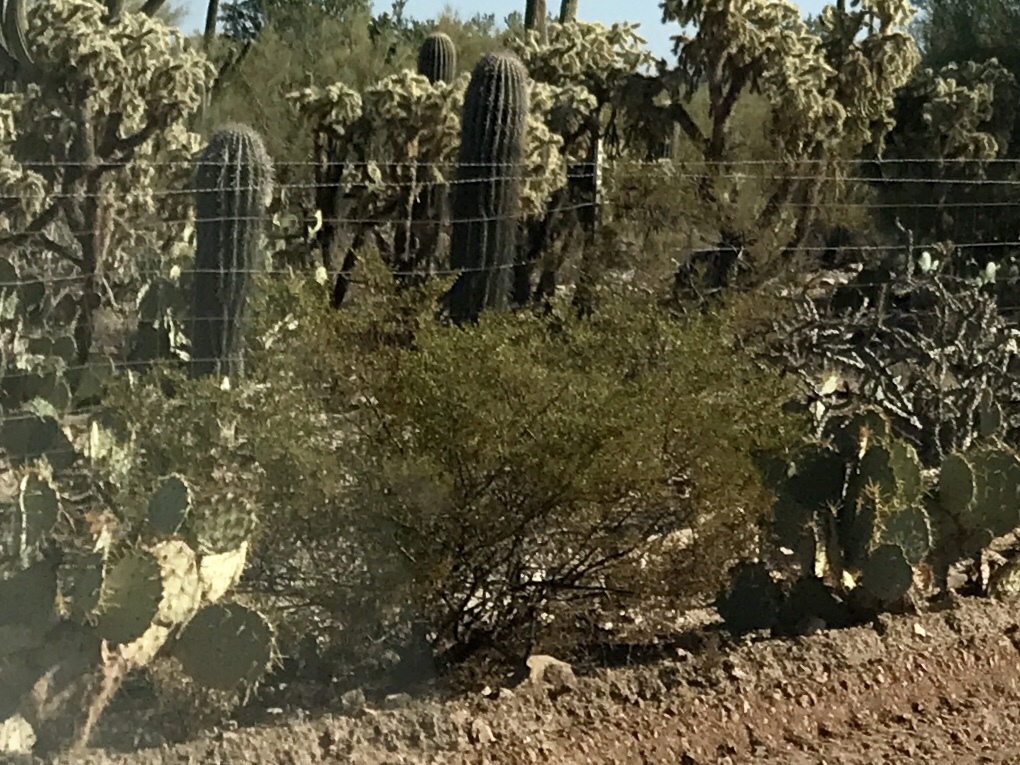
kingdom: Plantae
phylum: Tracheophyta
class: Magnoliopsida
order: Zygophyllales
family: Zygophyllaceae
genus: Larrea
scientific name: Larrea tridentata
